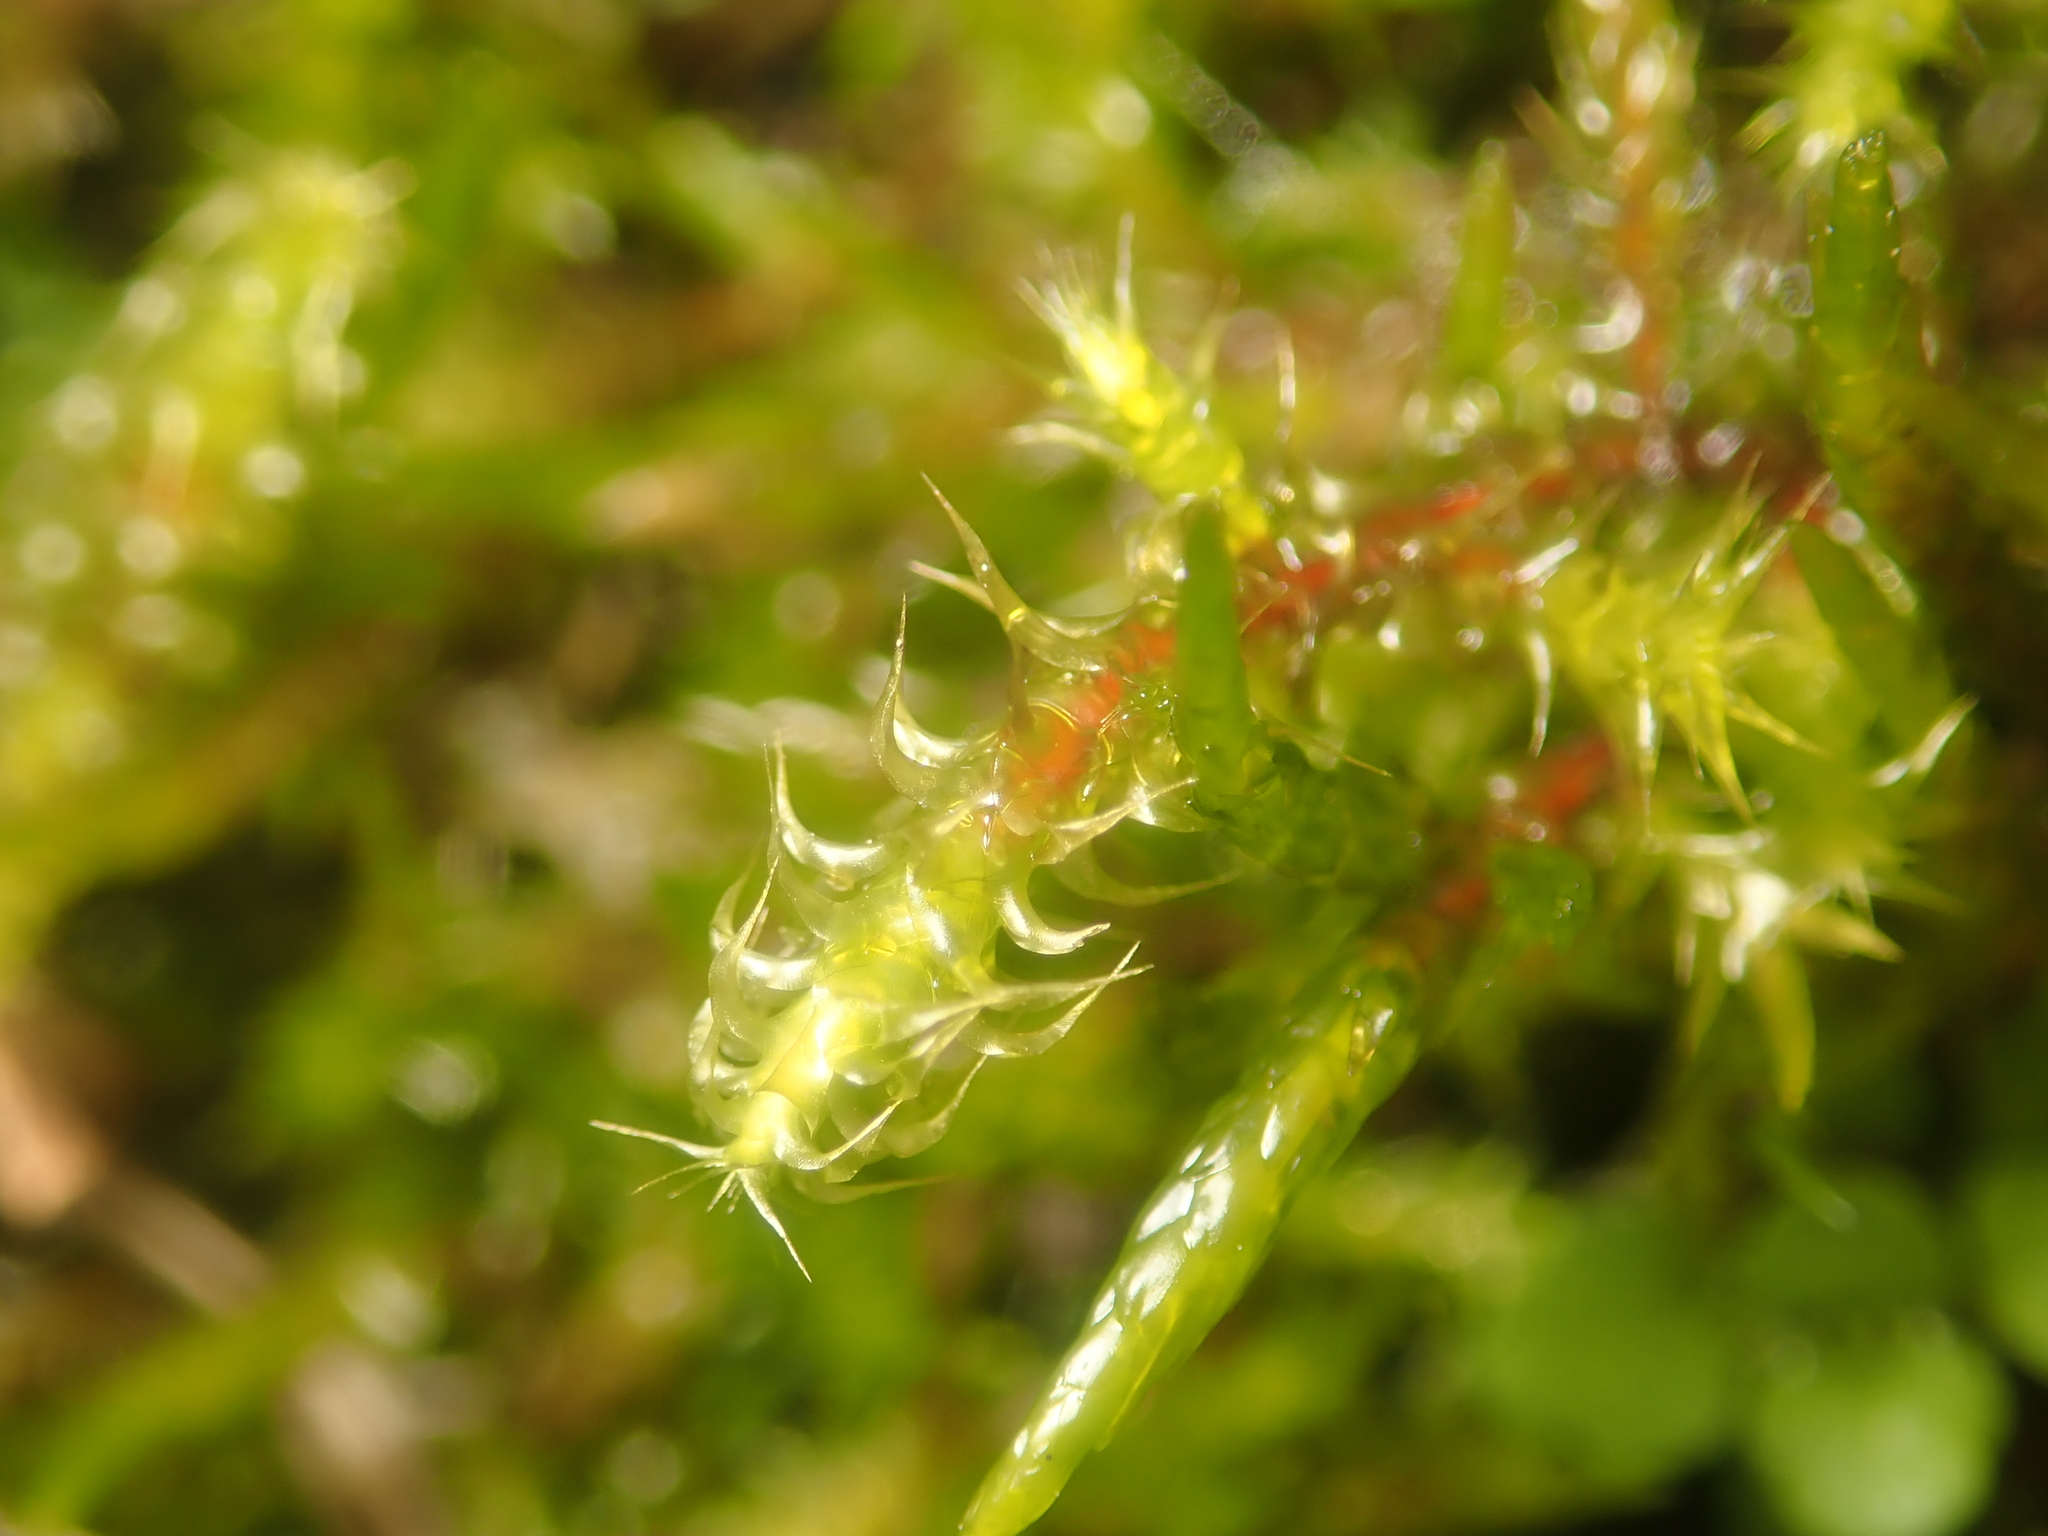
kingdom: Plantae
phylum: Bryophyta
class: Bryopsida
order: Hypnales
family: Hylocomiaceae
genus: Rhytidiadelphus
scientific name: Rhytidiadelphus squarrosus
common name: Springy turf-moss
